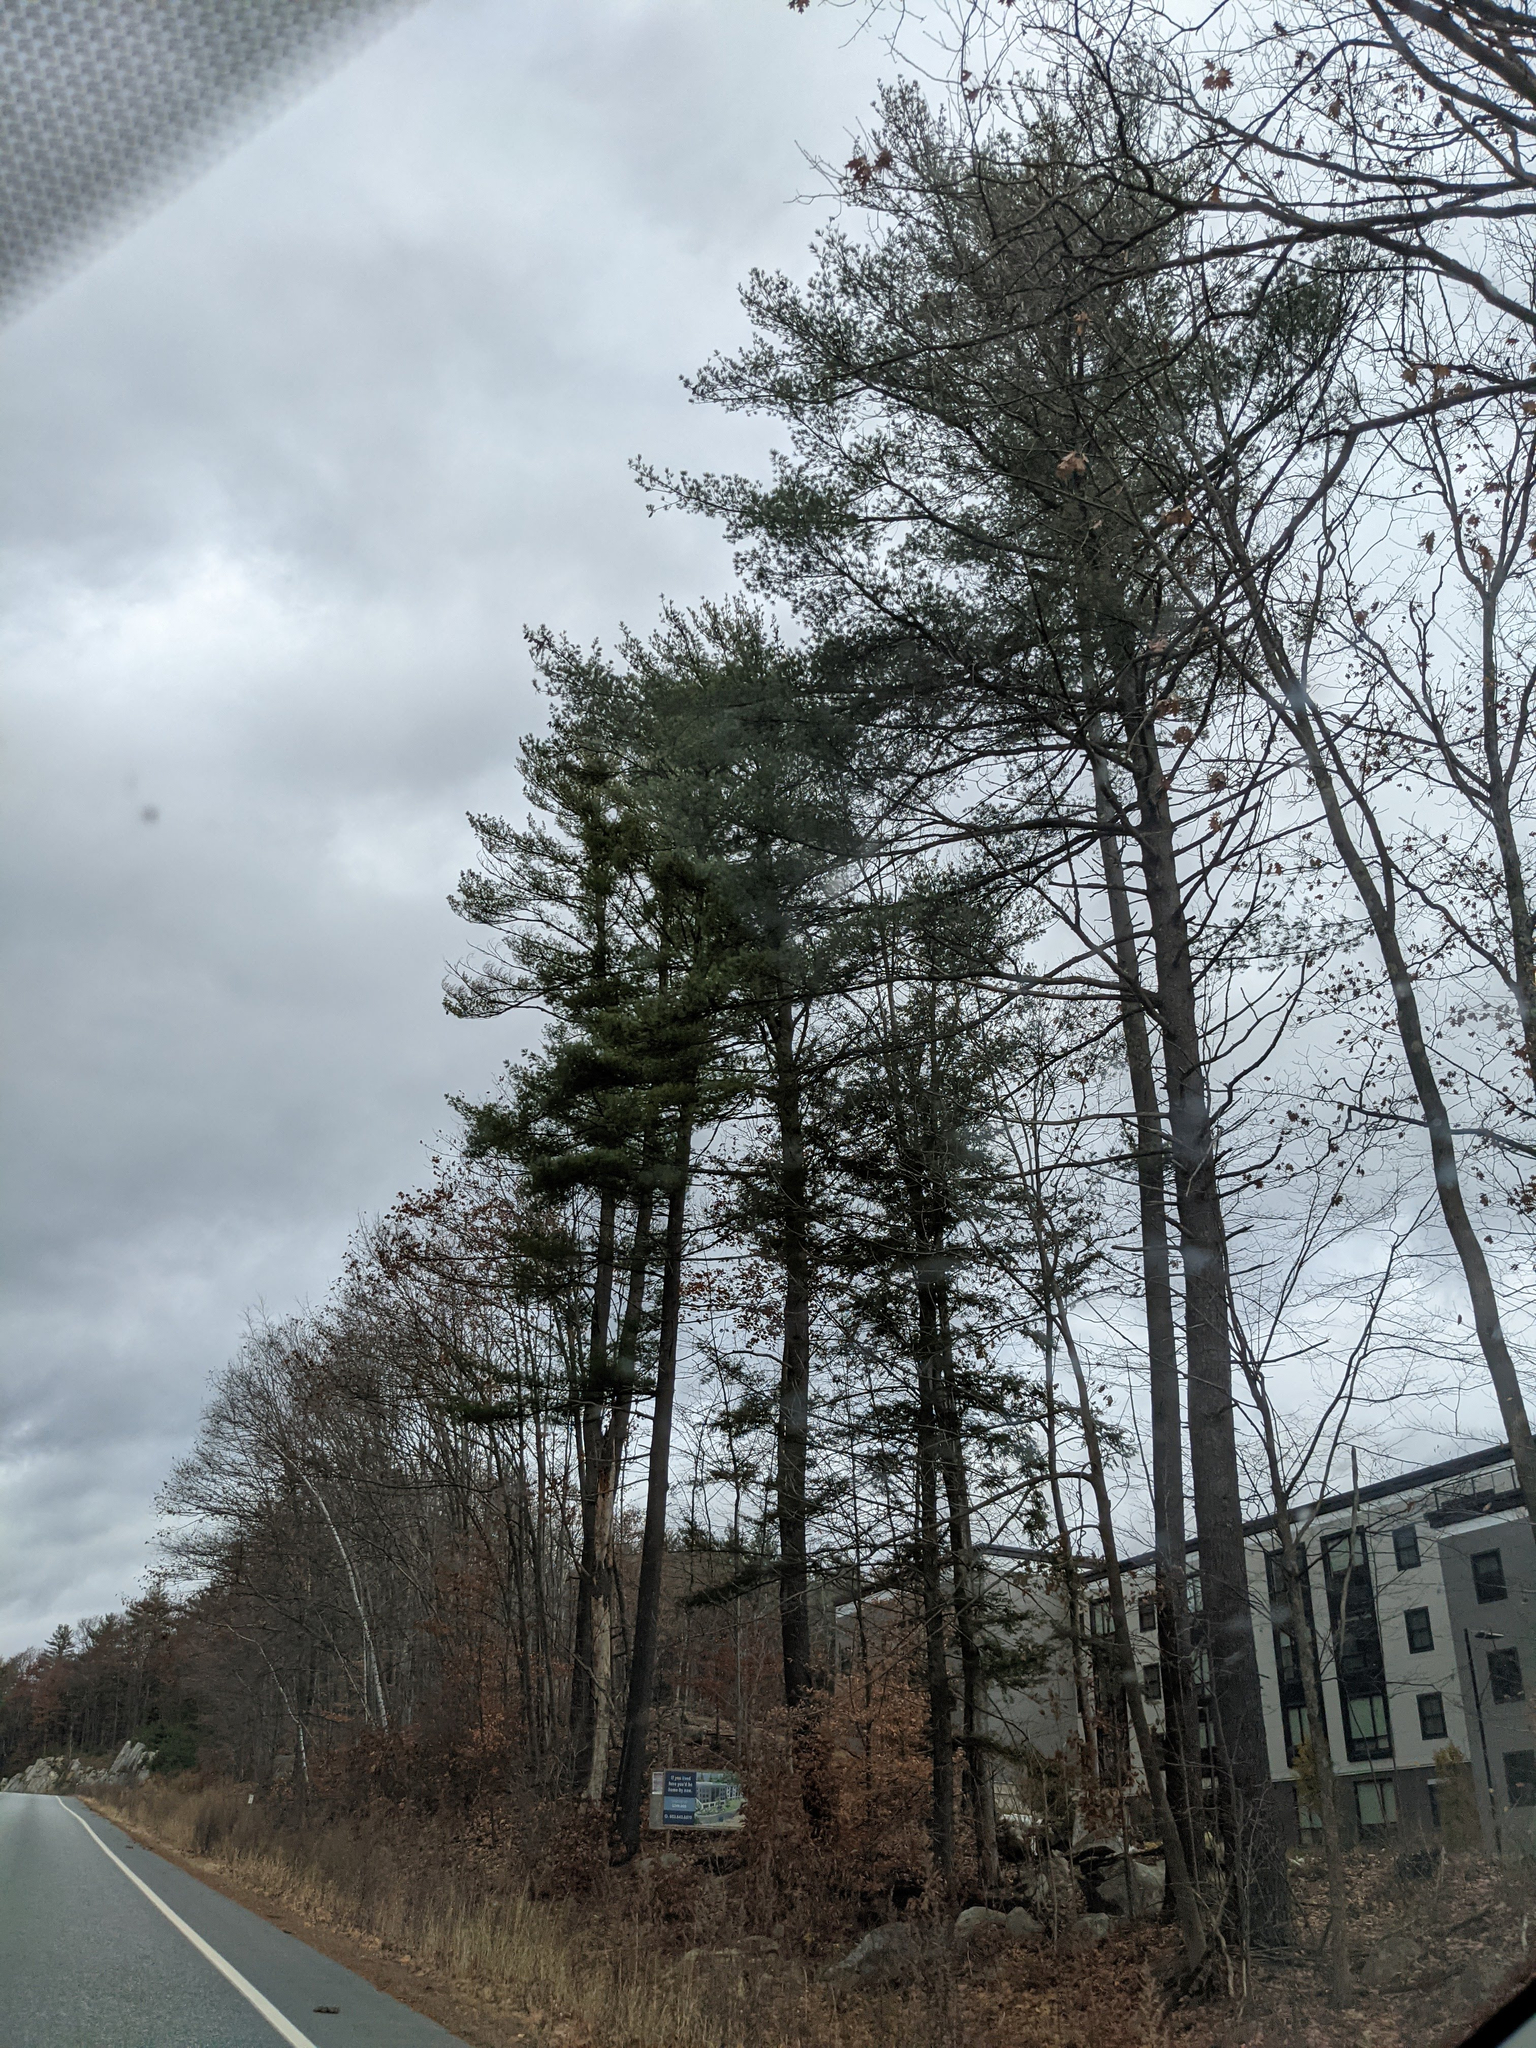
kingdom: Plantae
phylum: Tracheophyta
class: Pinopsida
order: Pinales
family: Pinaceae
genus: Pinus
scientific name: Pinus strobus
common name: Weymouth pine
